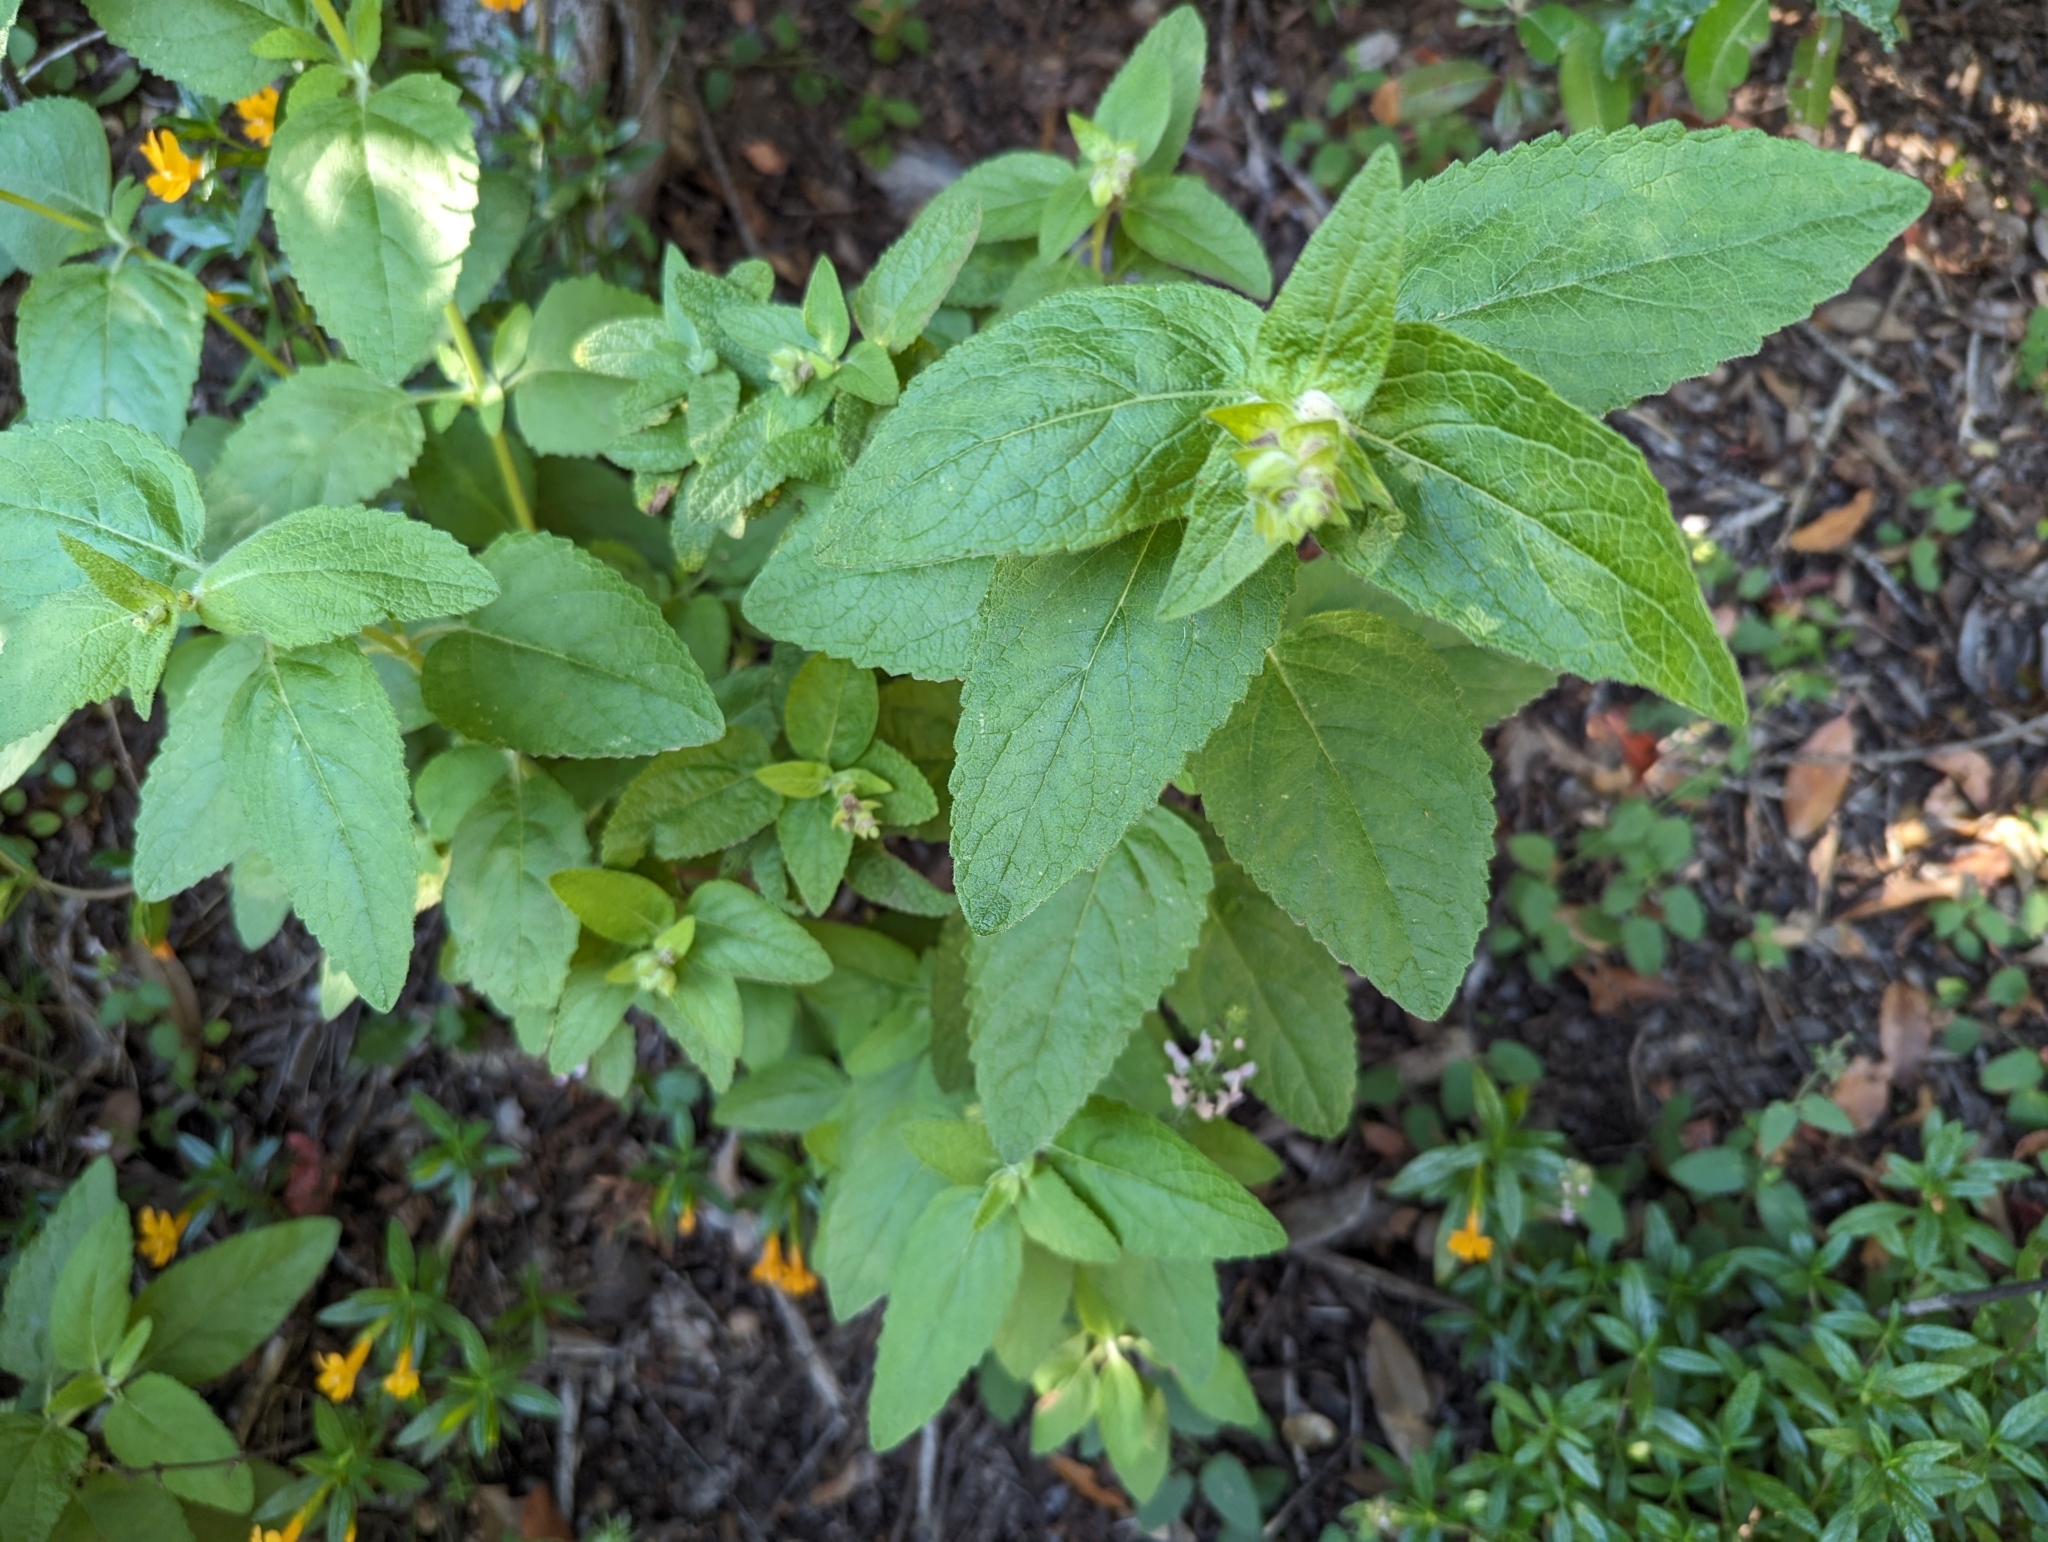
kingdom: Plantae
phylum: Tracheophyta
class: Magnoliopsida
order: Lamiales
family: Lamiaceae
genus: Lepechinia
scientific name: Lepechinia calycina
